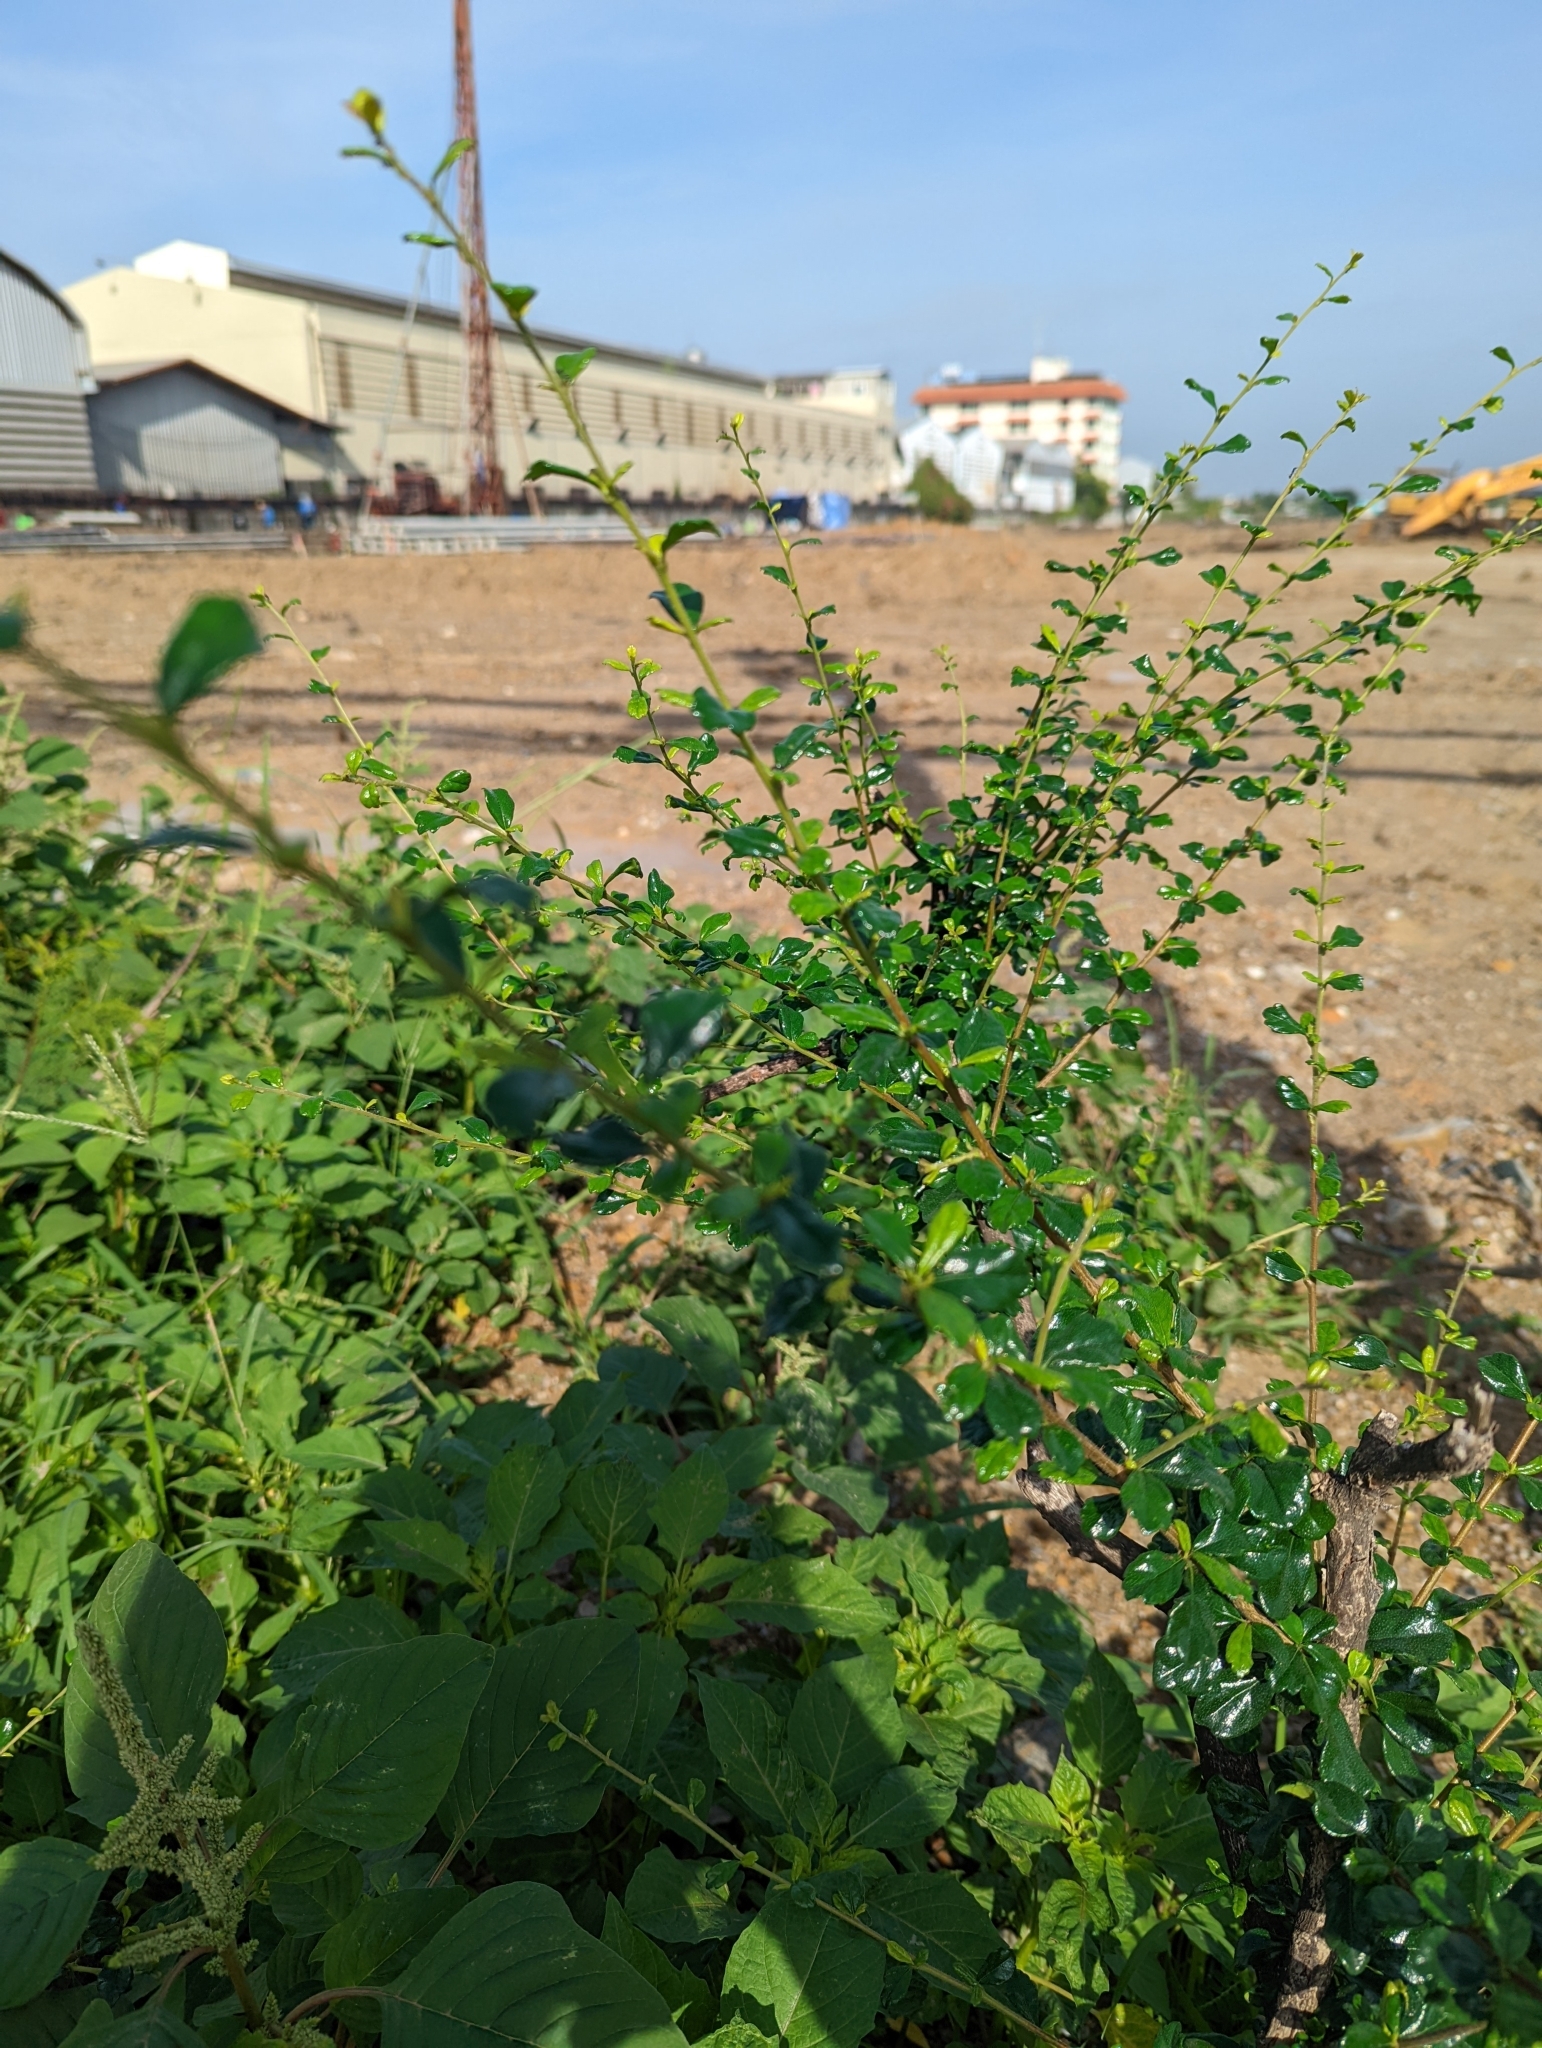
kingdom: Plantae
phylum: Tracheophyta
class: Magnoliopsida
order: Boraginales
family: Ehretiaceae
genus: Ehretia
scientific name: Ehretia microphylla
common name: Fukien-tea
